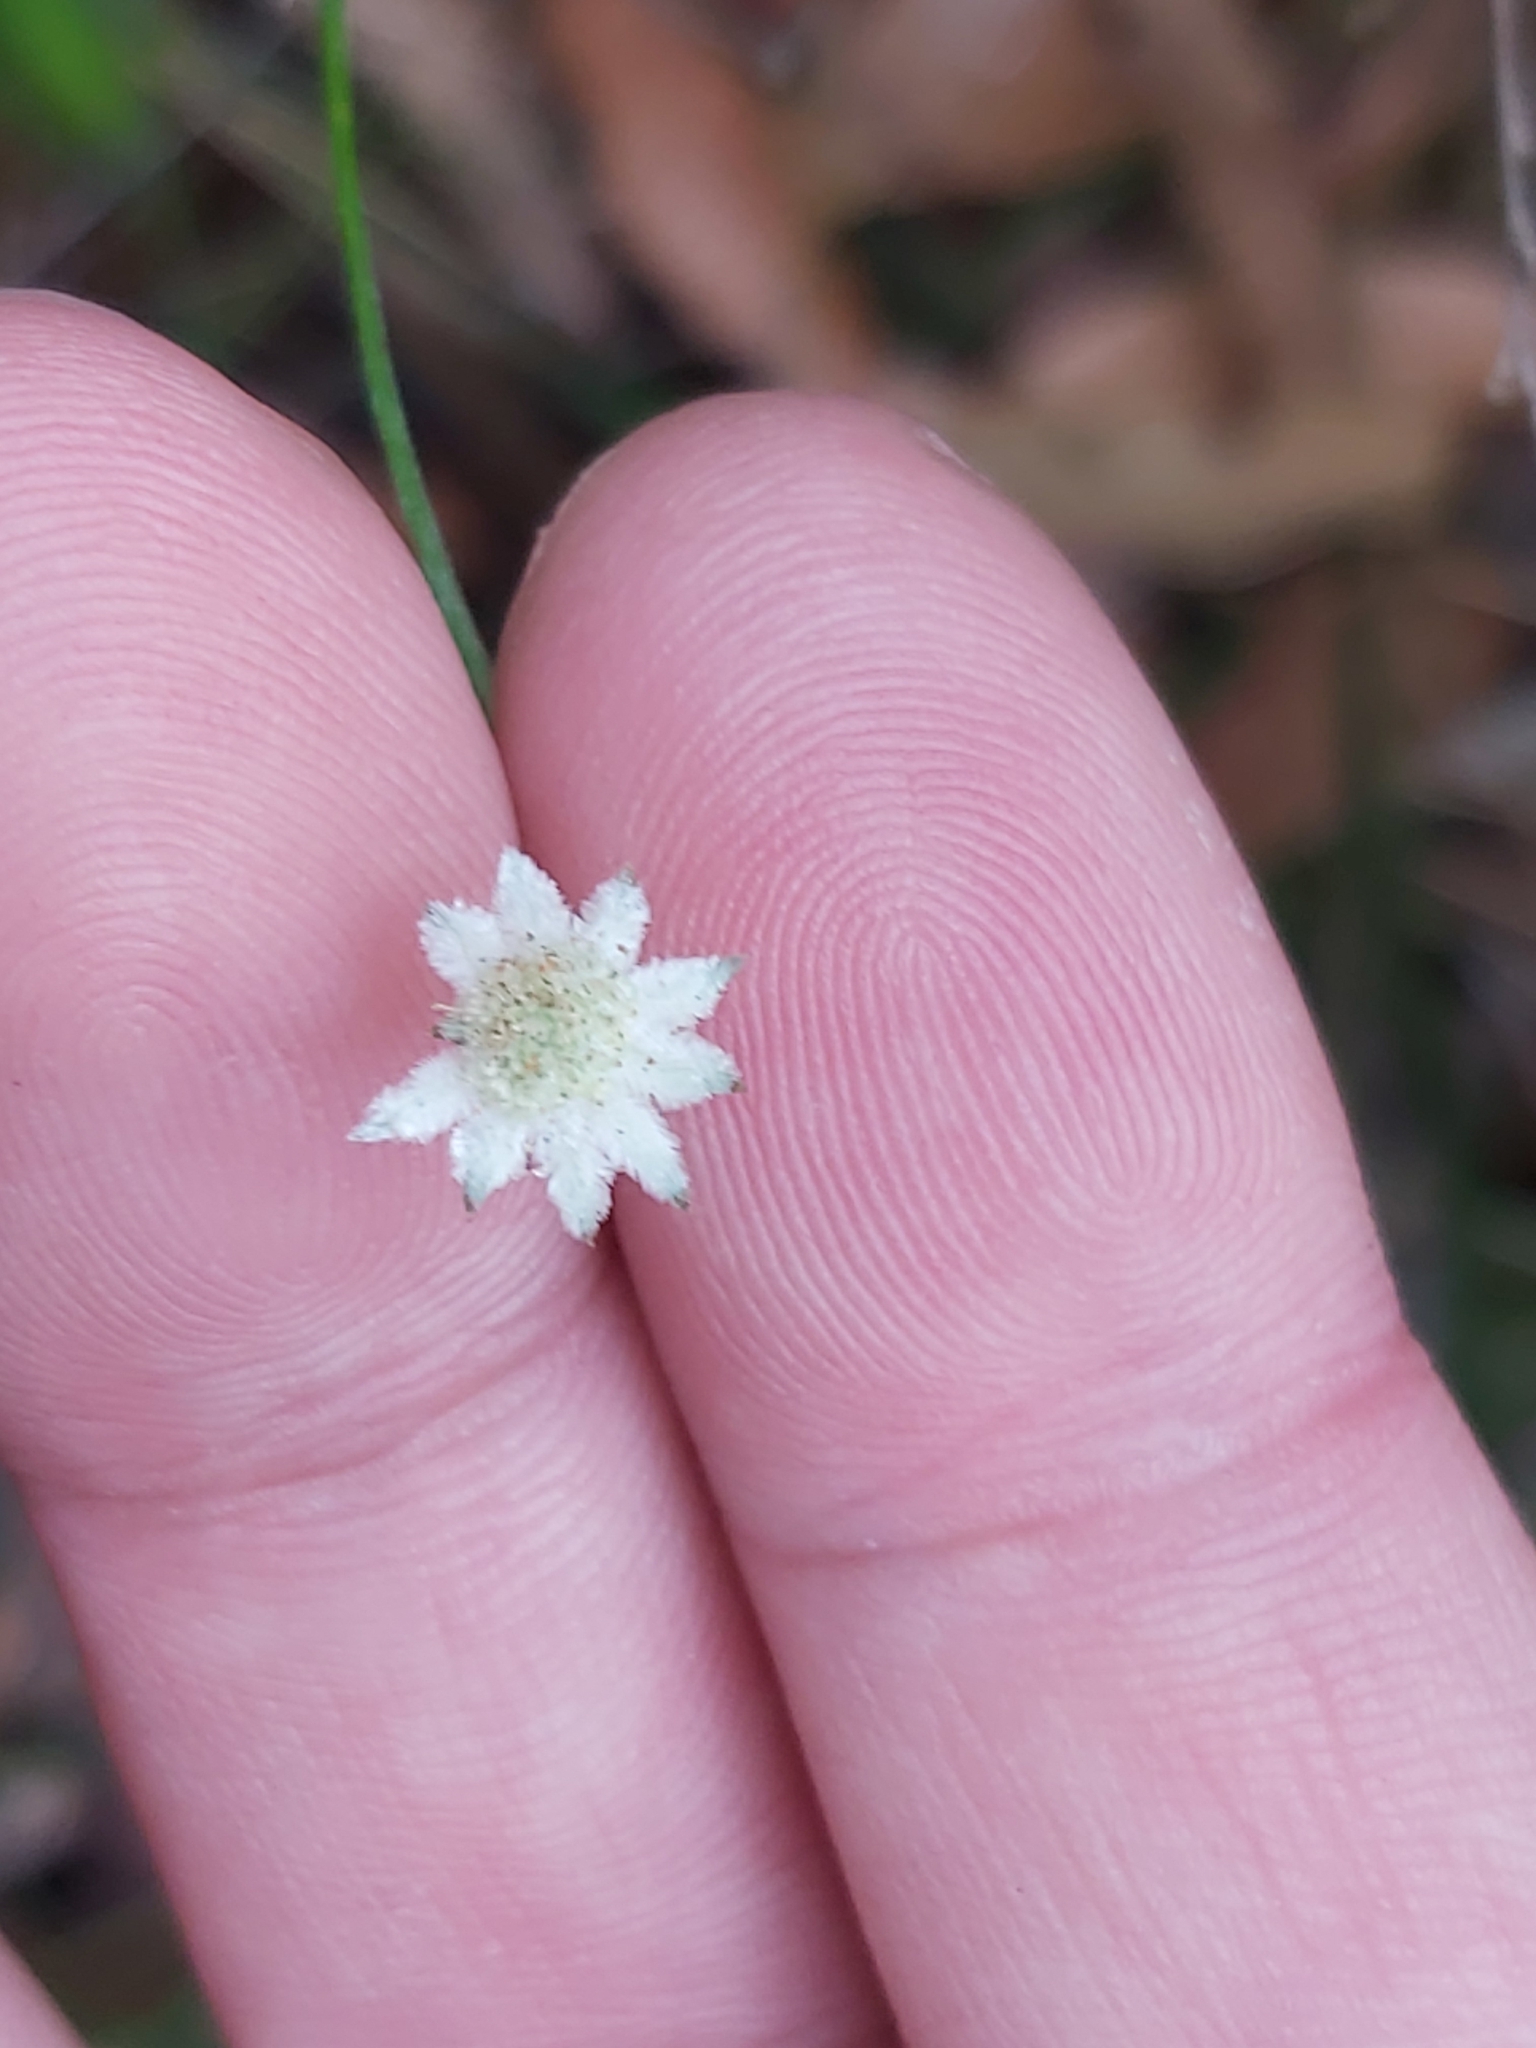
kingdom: Plantae
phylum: Tracheophyta
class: Magnoliopsida
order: Apiales
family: Apiaceae
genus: Actinotus
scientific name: Actinotus minor
